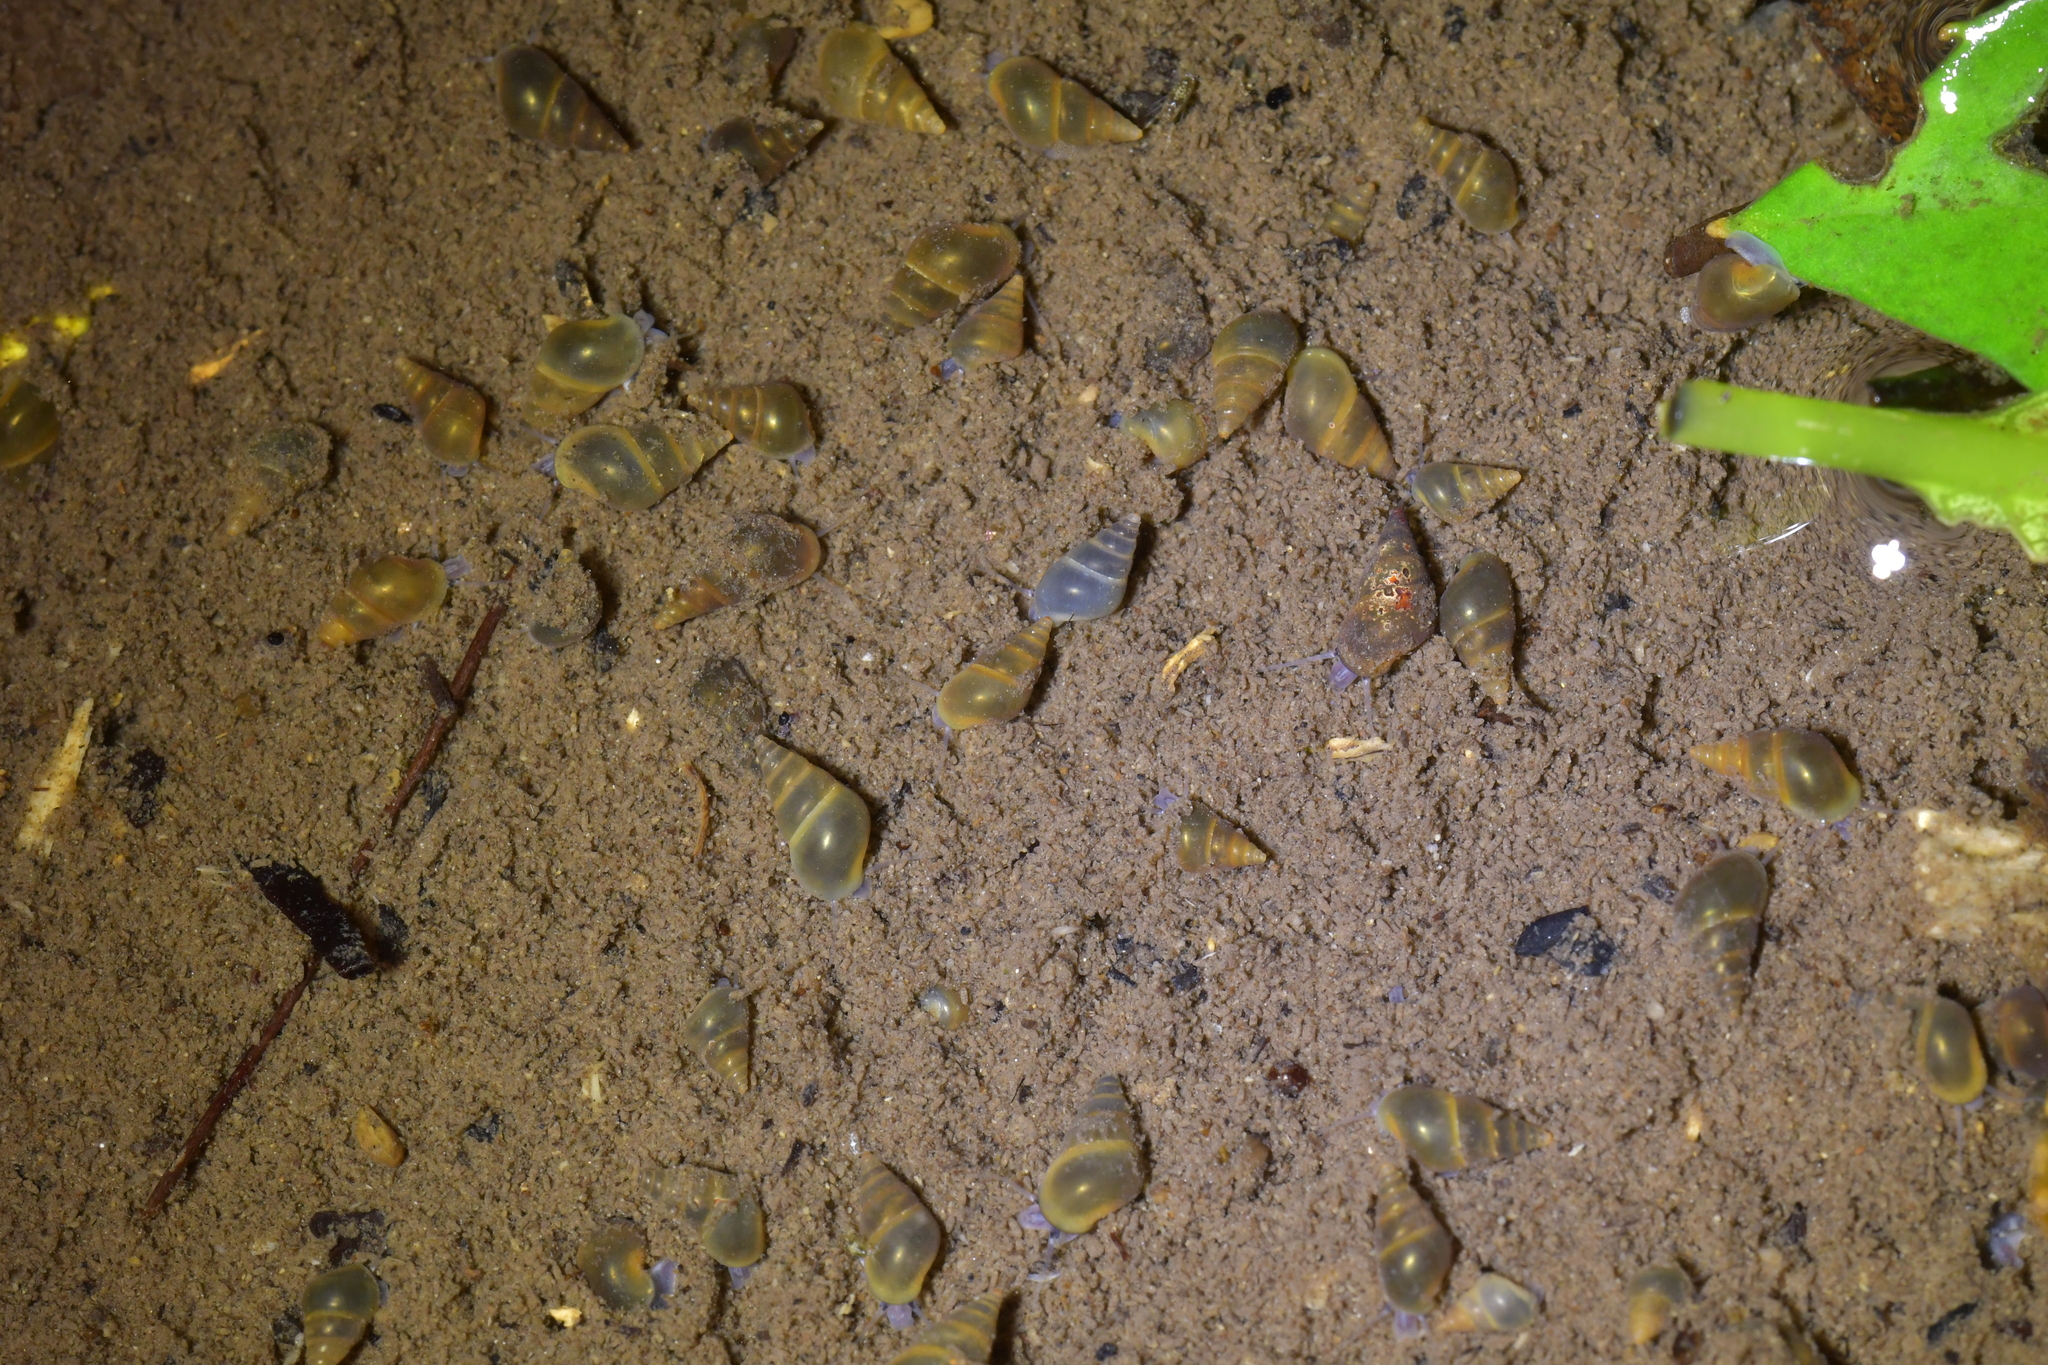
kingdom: Animalia
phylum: Mollusca
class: Gastropoda
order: Littorinimorpha
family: Tateidae
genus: Potamopyrgus
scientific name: Potamopyrgus antipodarum
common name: Jenkins' spire snail
